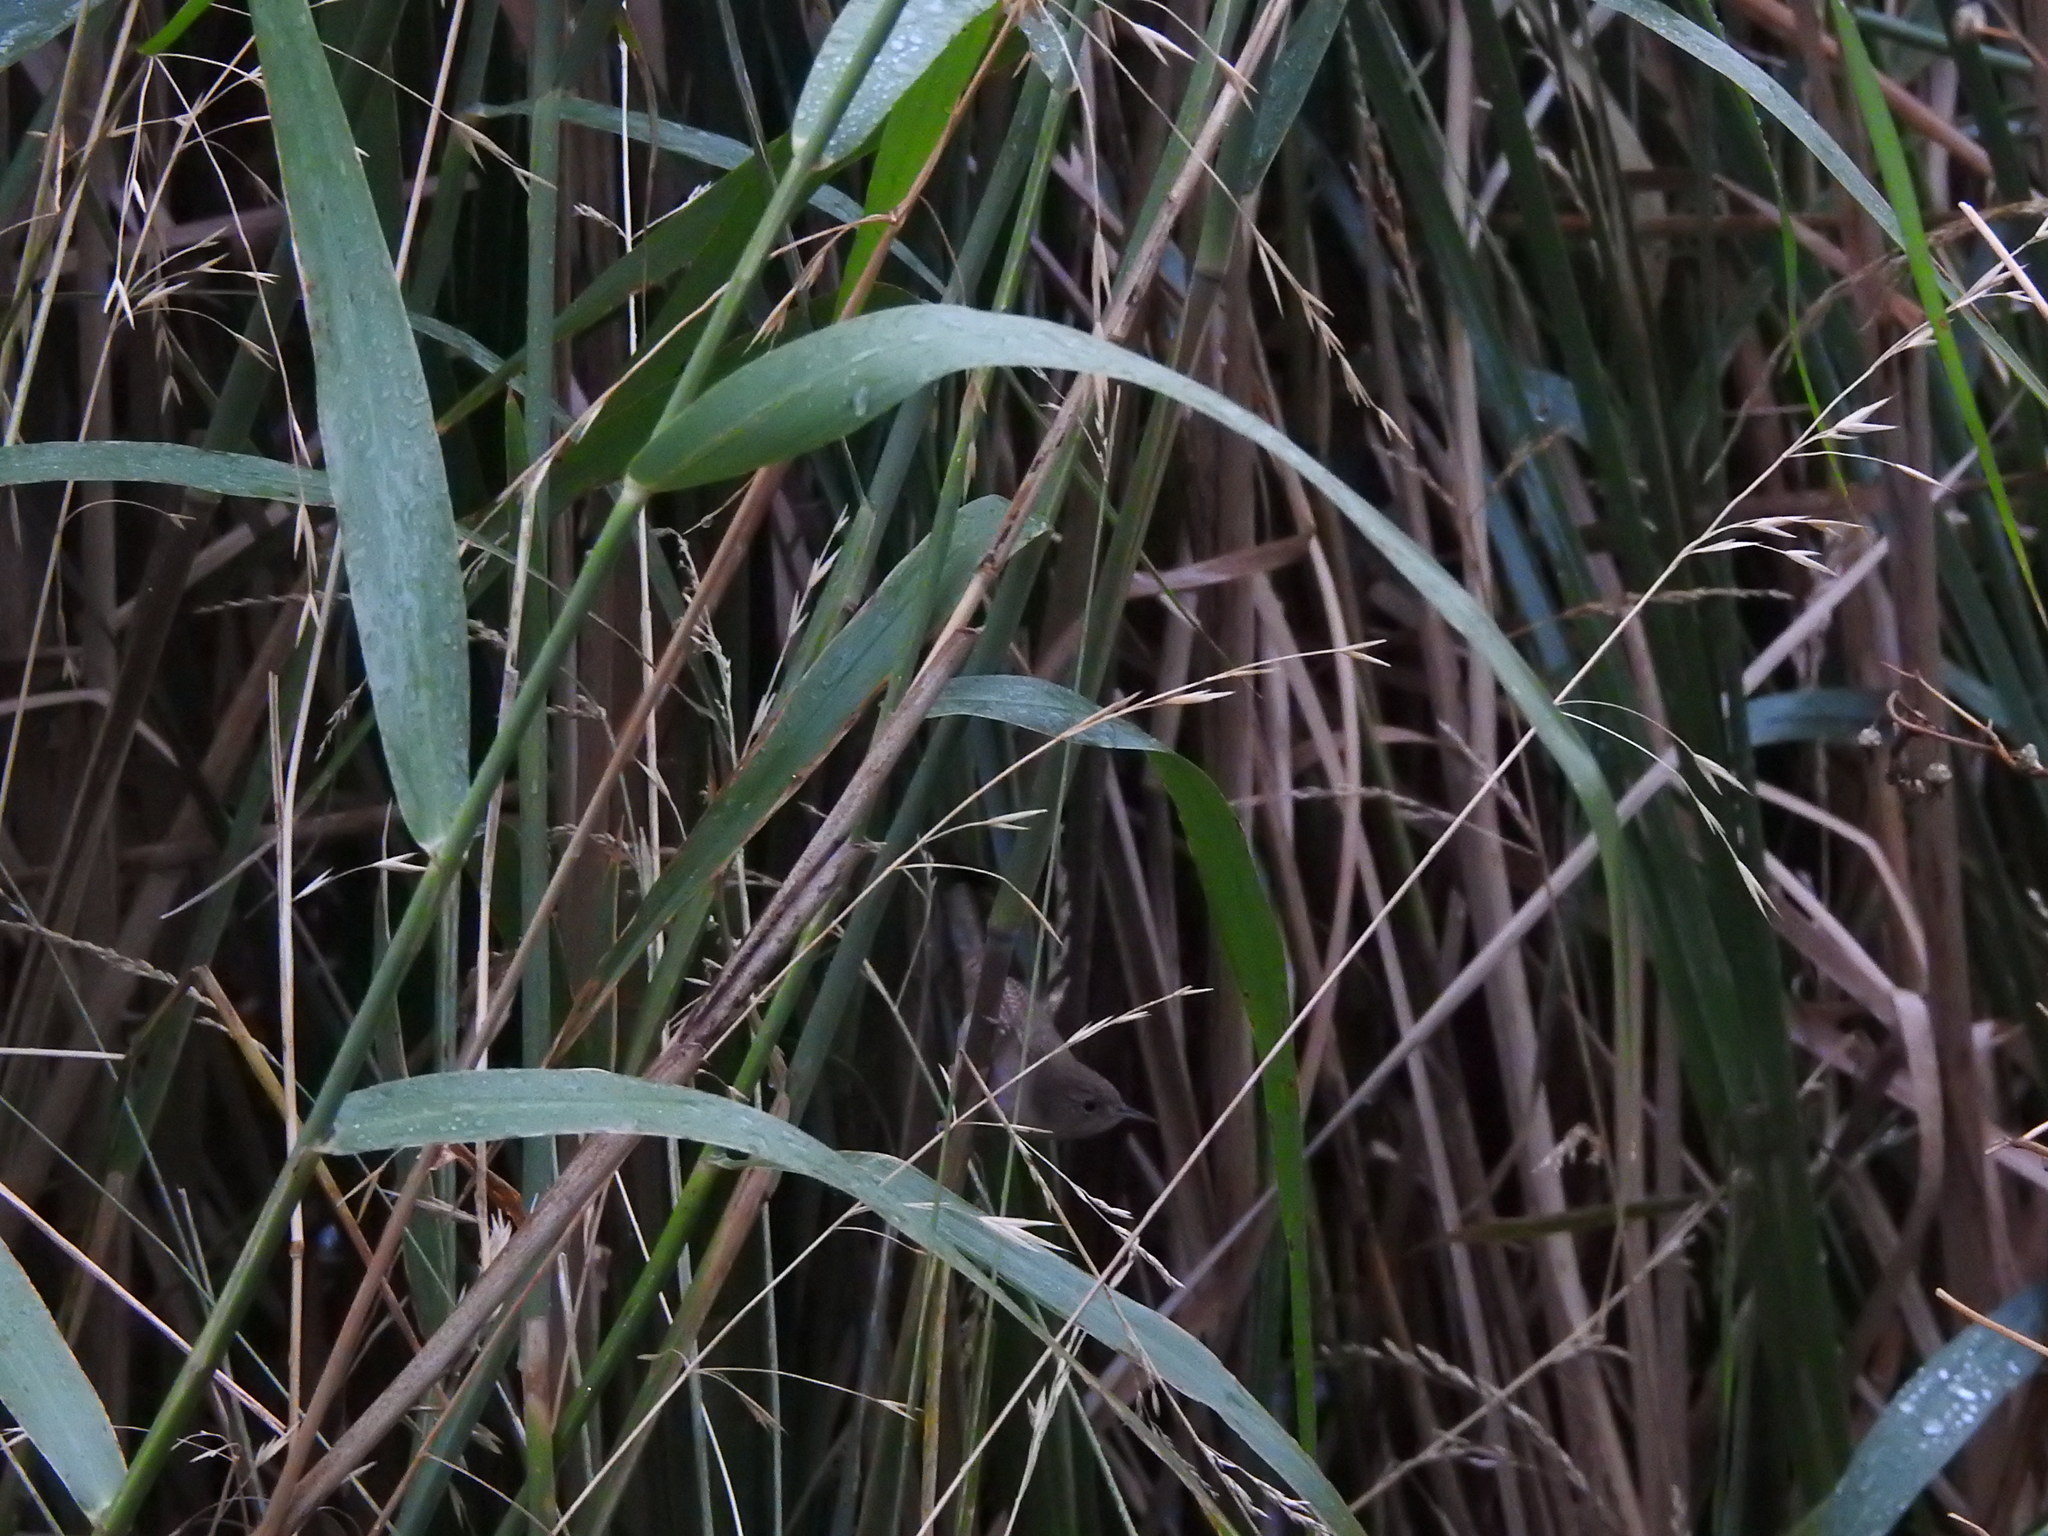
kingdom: Animalia
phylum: Chordata
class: Aves
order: Passeriformes
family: Troglodytidae
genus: Troglodytes
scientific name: Troglodytes aedon
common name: House wren
